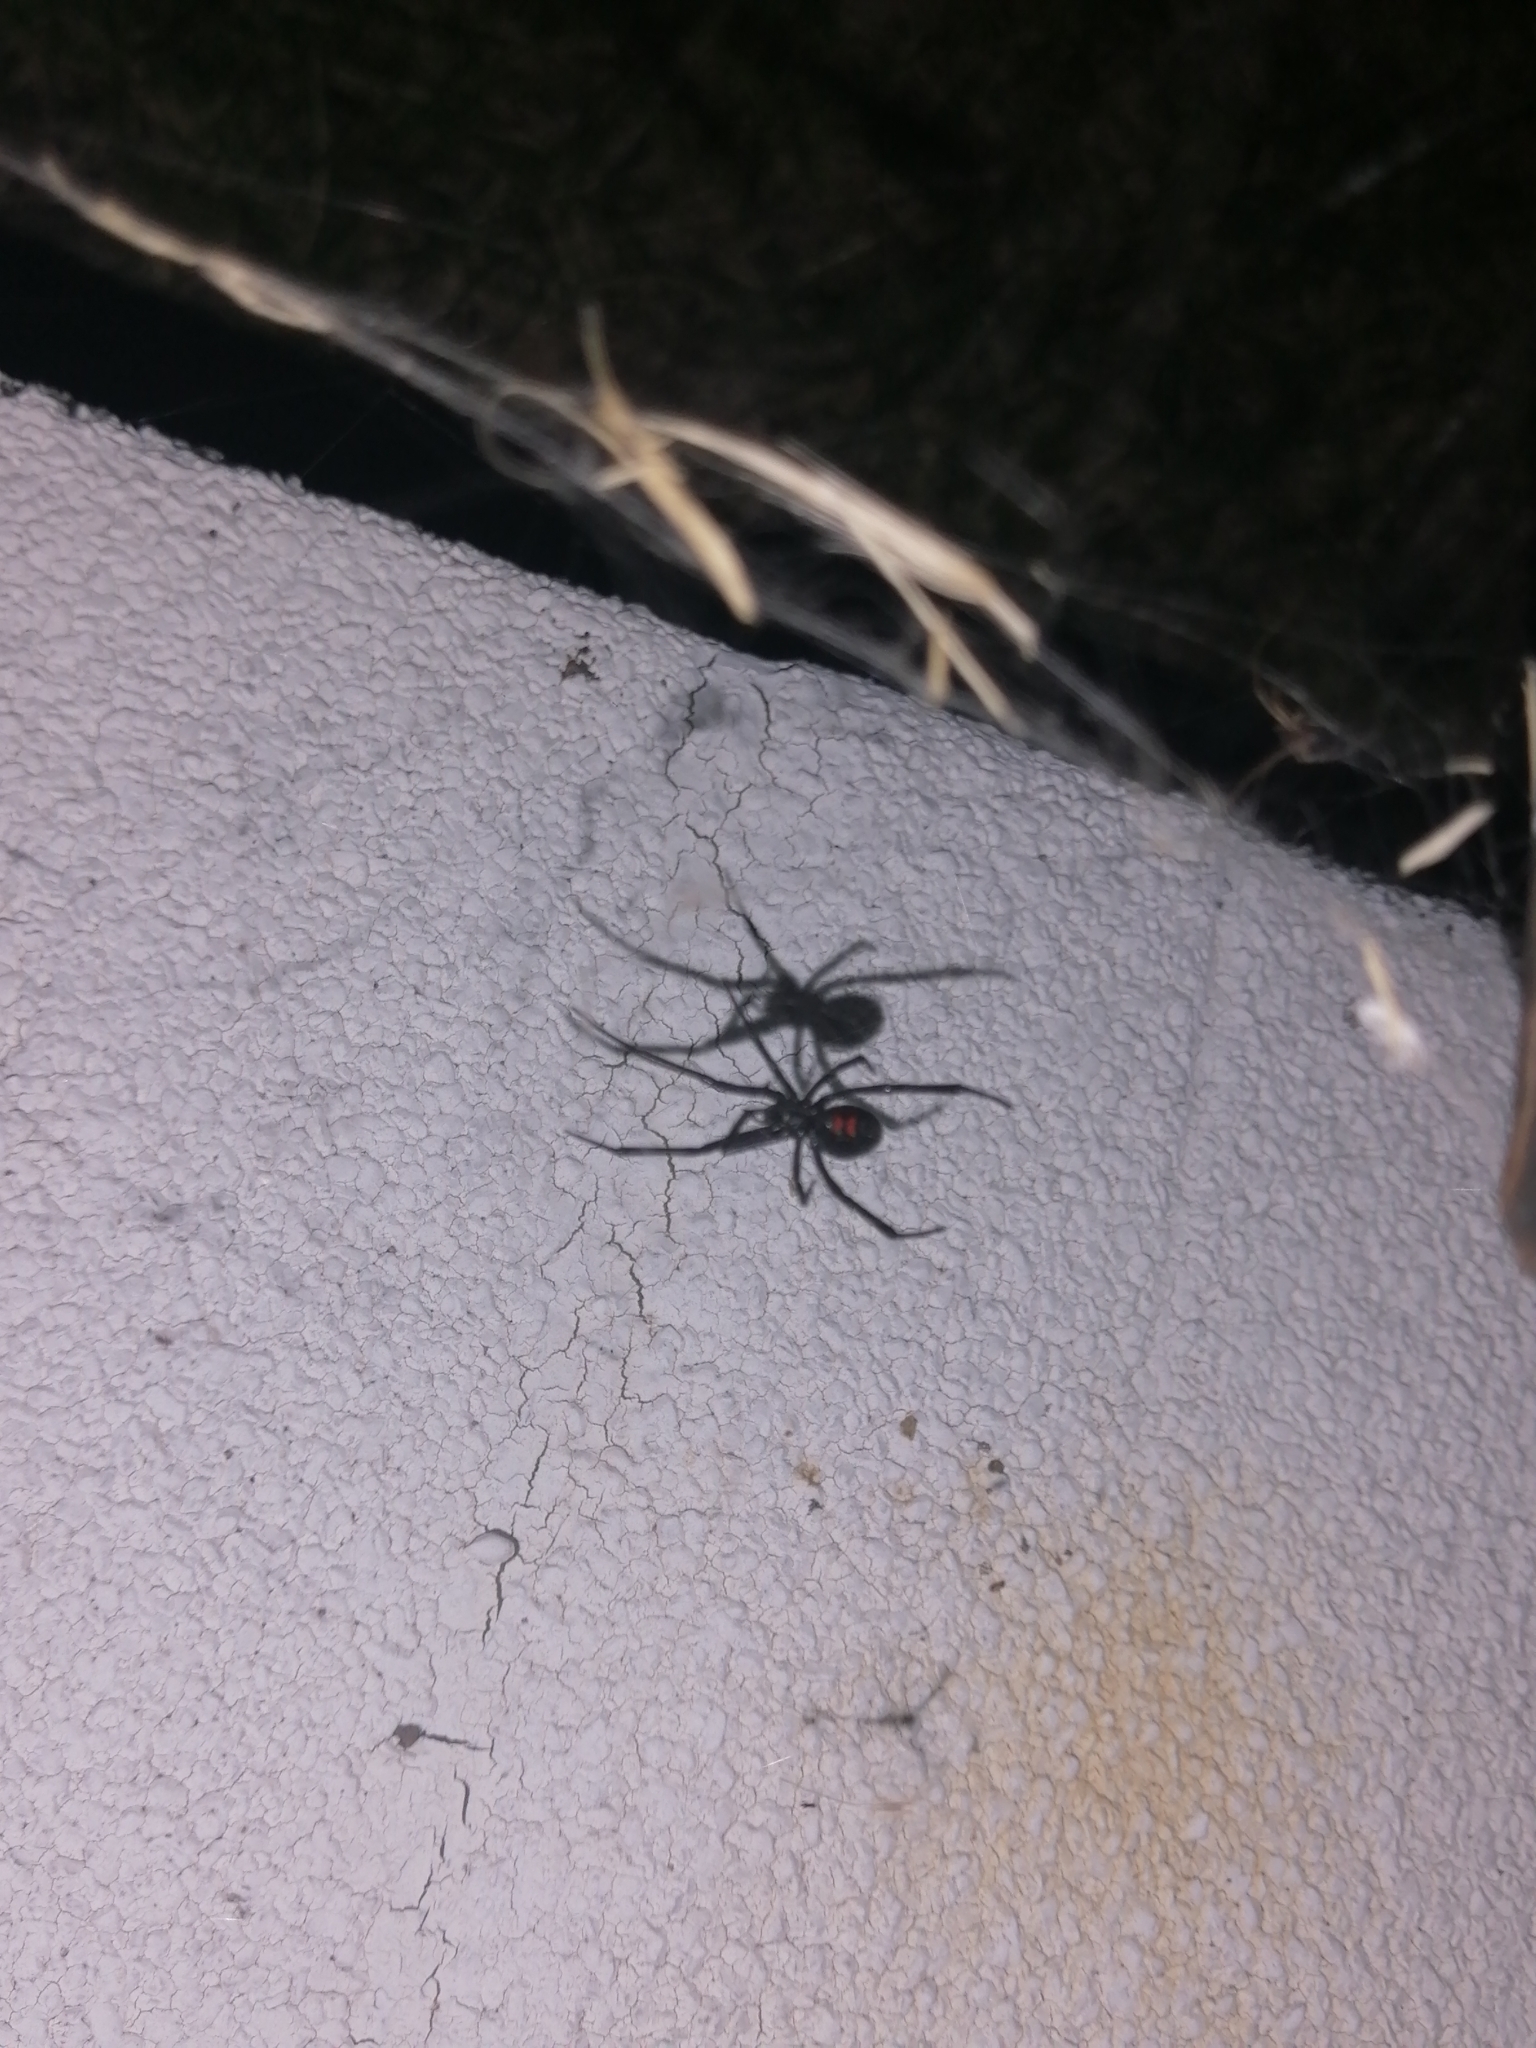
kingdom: Animalia
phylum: Arthropoda
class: Arachnida
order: Araneae
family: Theridiidae
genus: Latrodectus
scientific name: Latrodectus mactans
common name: Cobweb spiders
